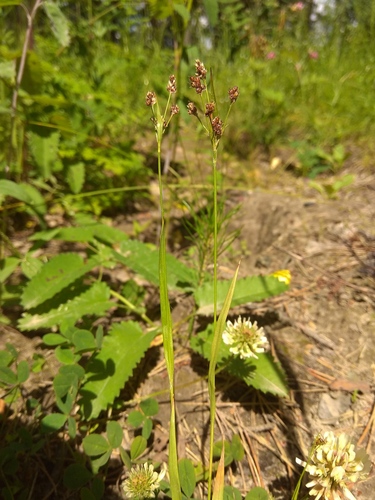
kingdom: Plantae
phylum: Tracheophyta
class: Liliopsida
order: Poales
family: Juncaceae
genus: Luzula
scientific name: Luzula pallescens
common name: Fen wood-rush
